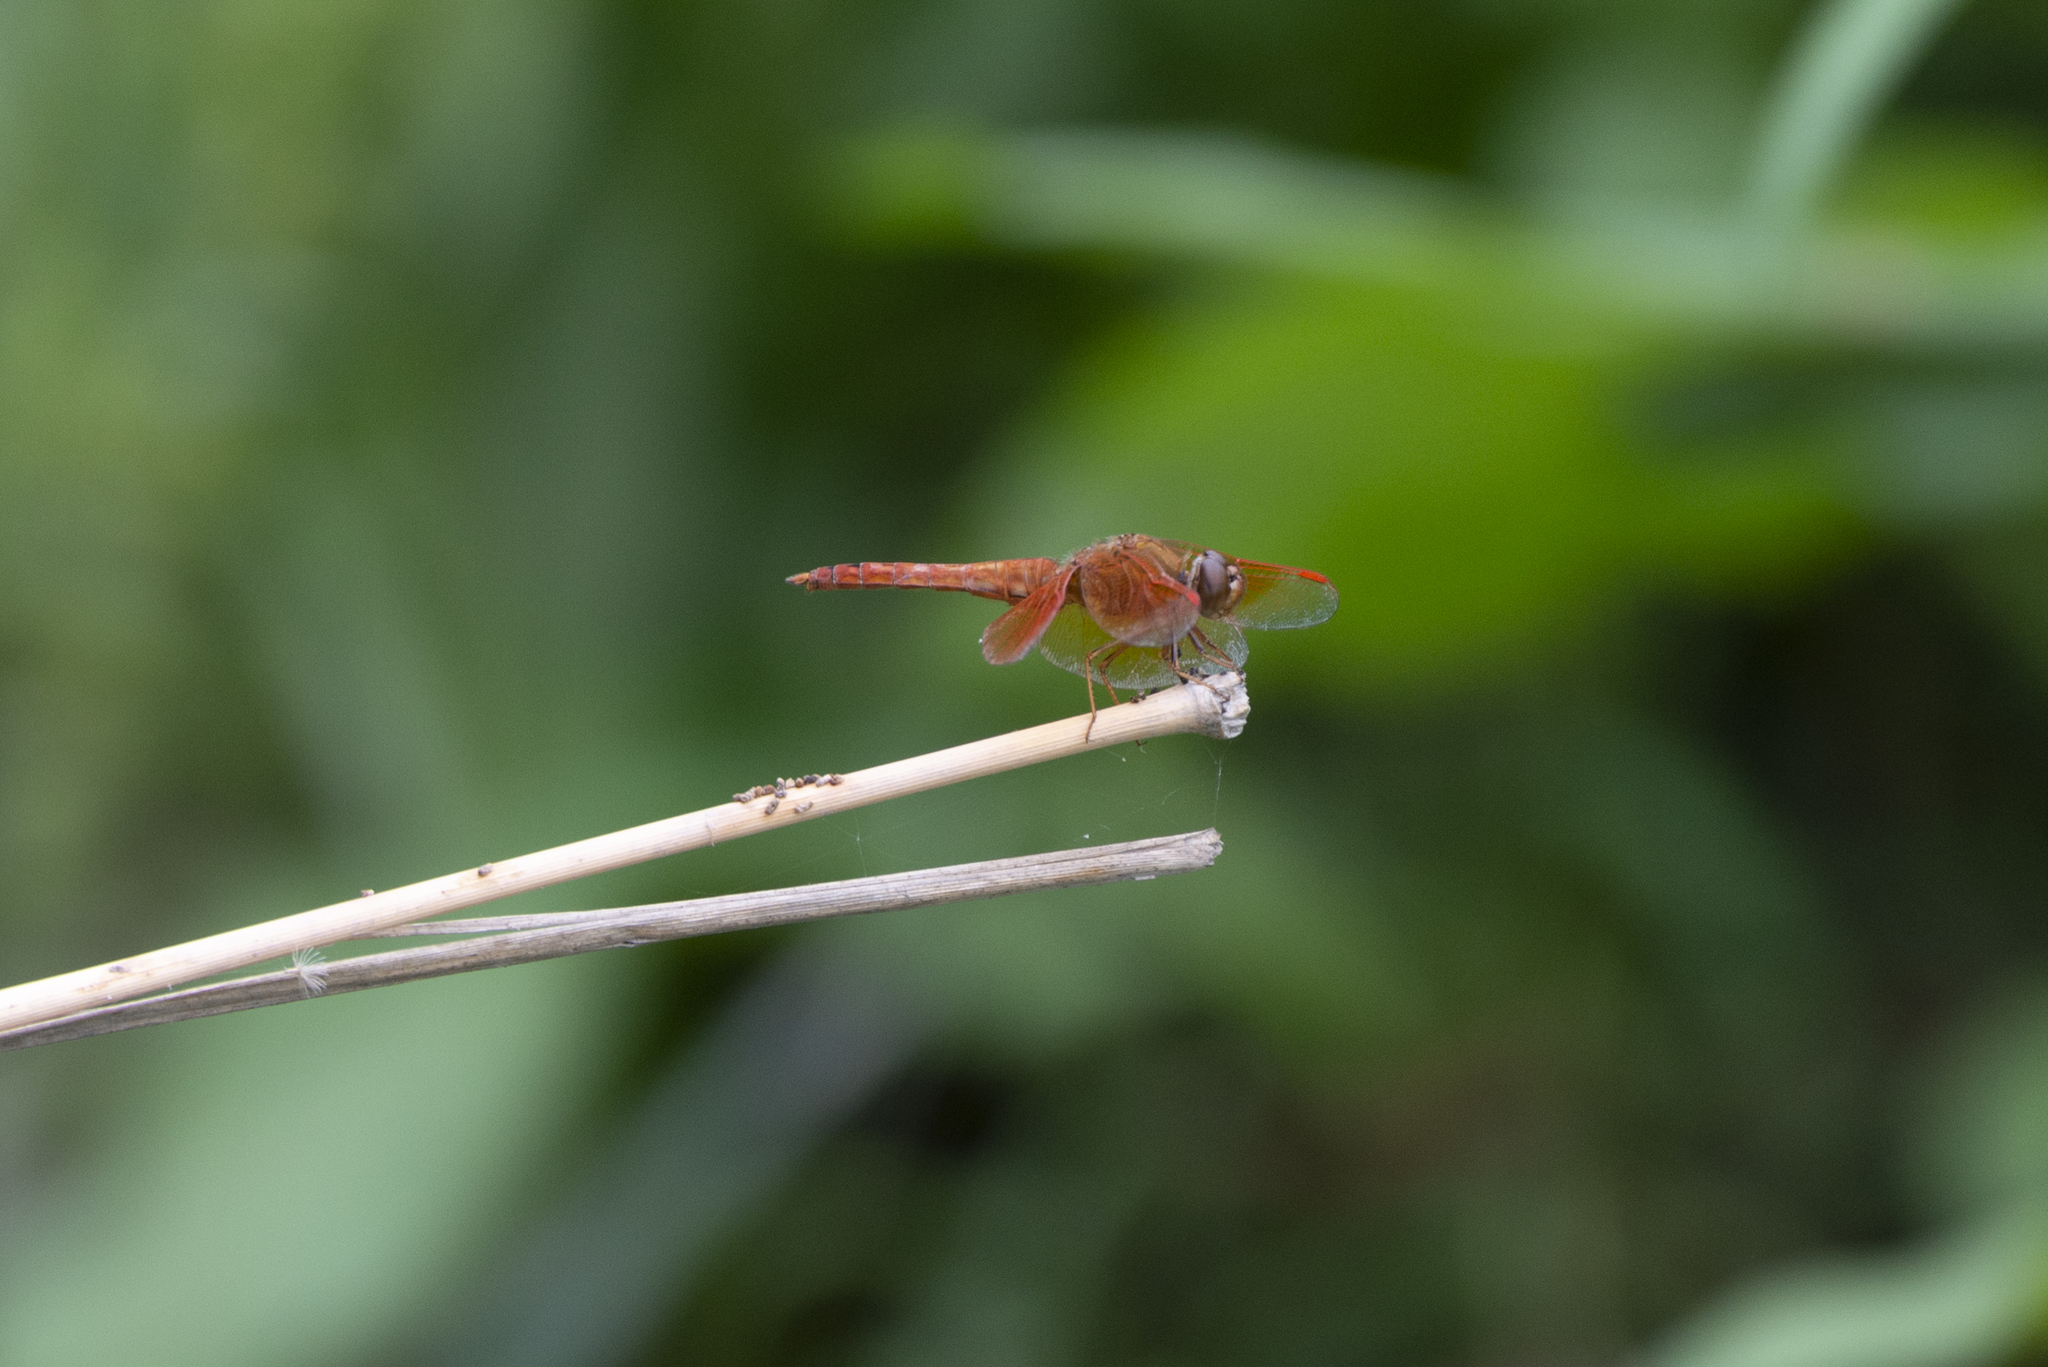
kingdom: Animalia
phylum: Arthropoda
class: Insecta
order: Odonata
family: Libellulidae
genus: Brachythemis
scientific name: Brachythemis contaminata
